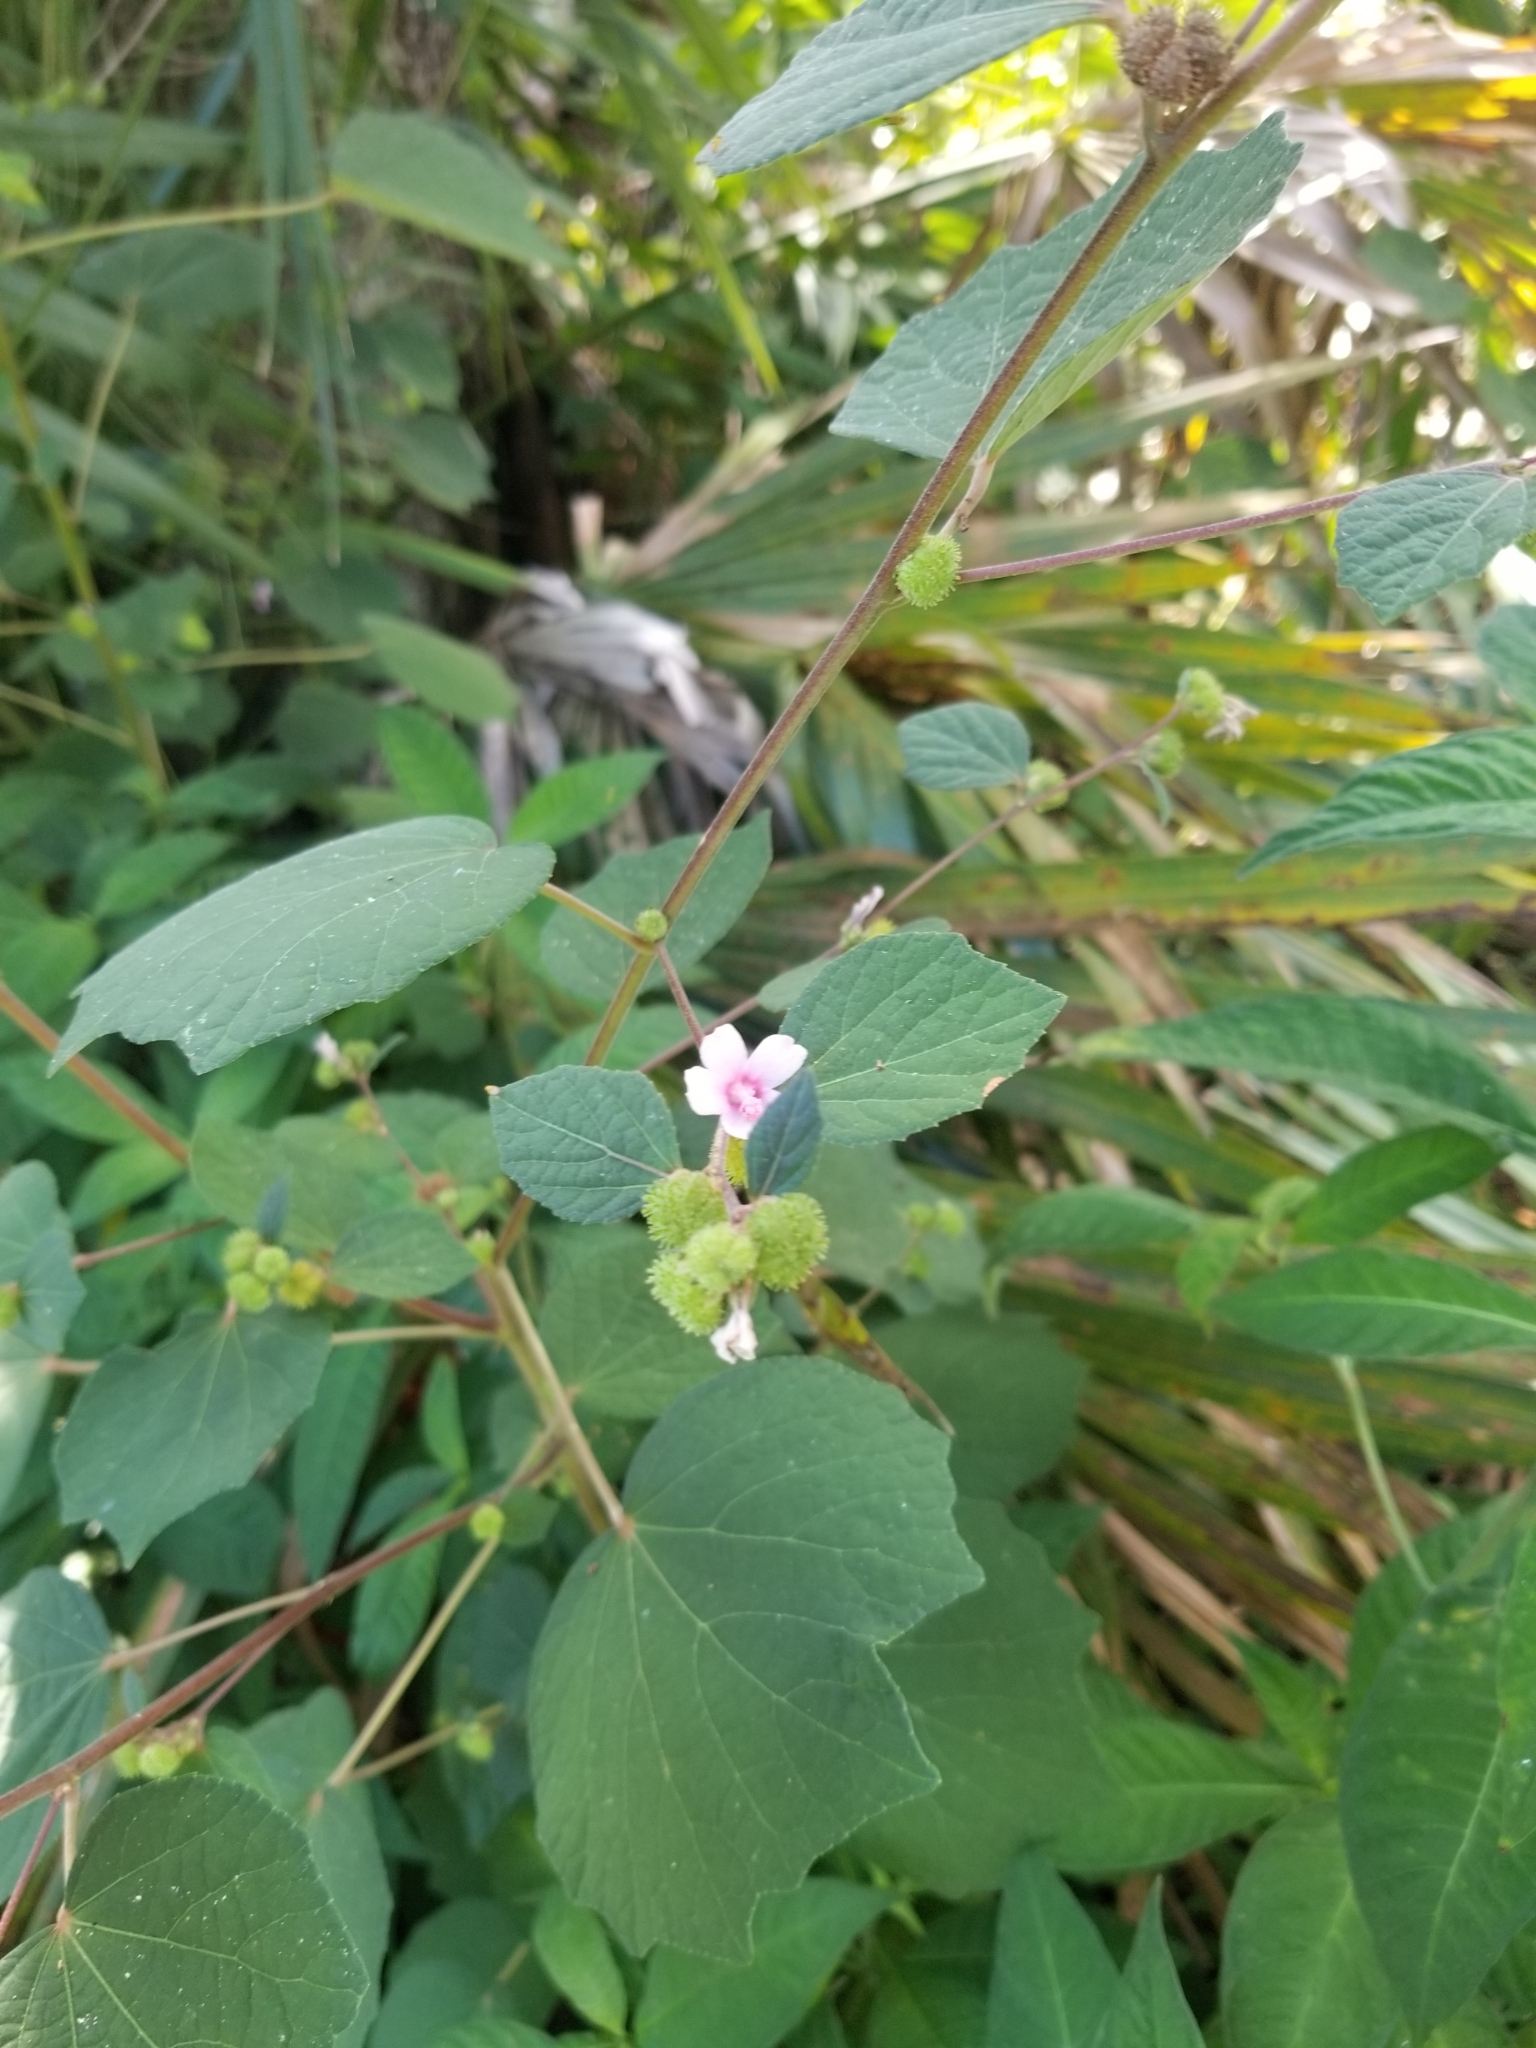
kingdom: Plantae
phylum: Tracheophyta
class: Magnoliopsida
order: Malvales
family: Malvaceae
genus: Urena
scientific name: Urena lobata
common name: Caesarweed
